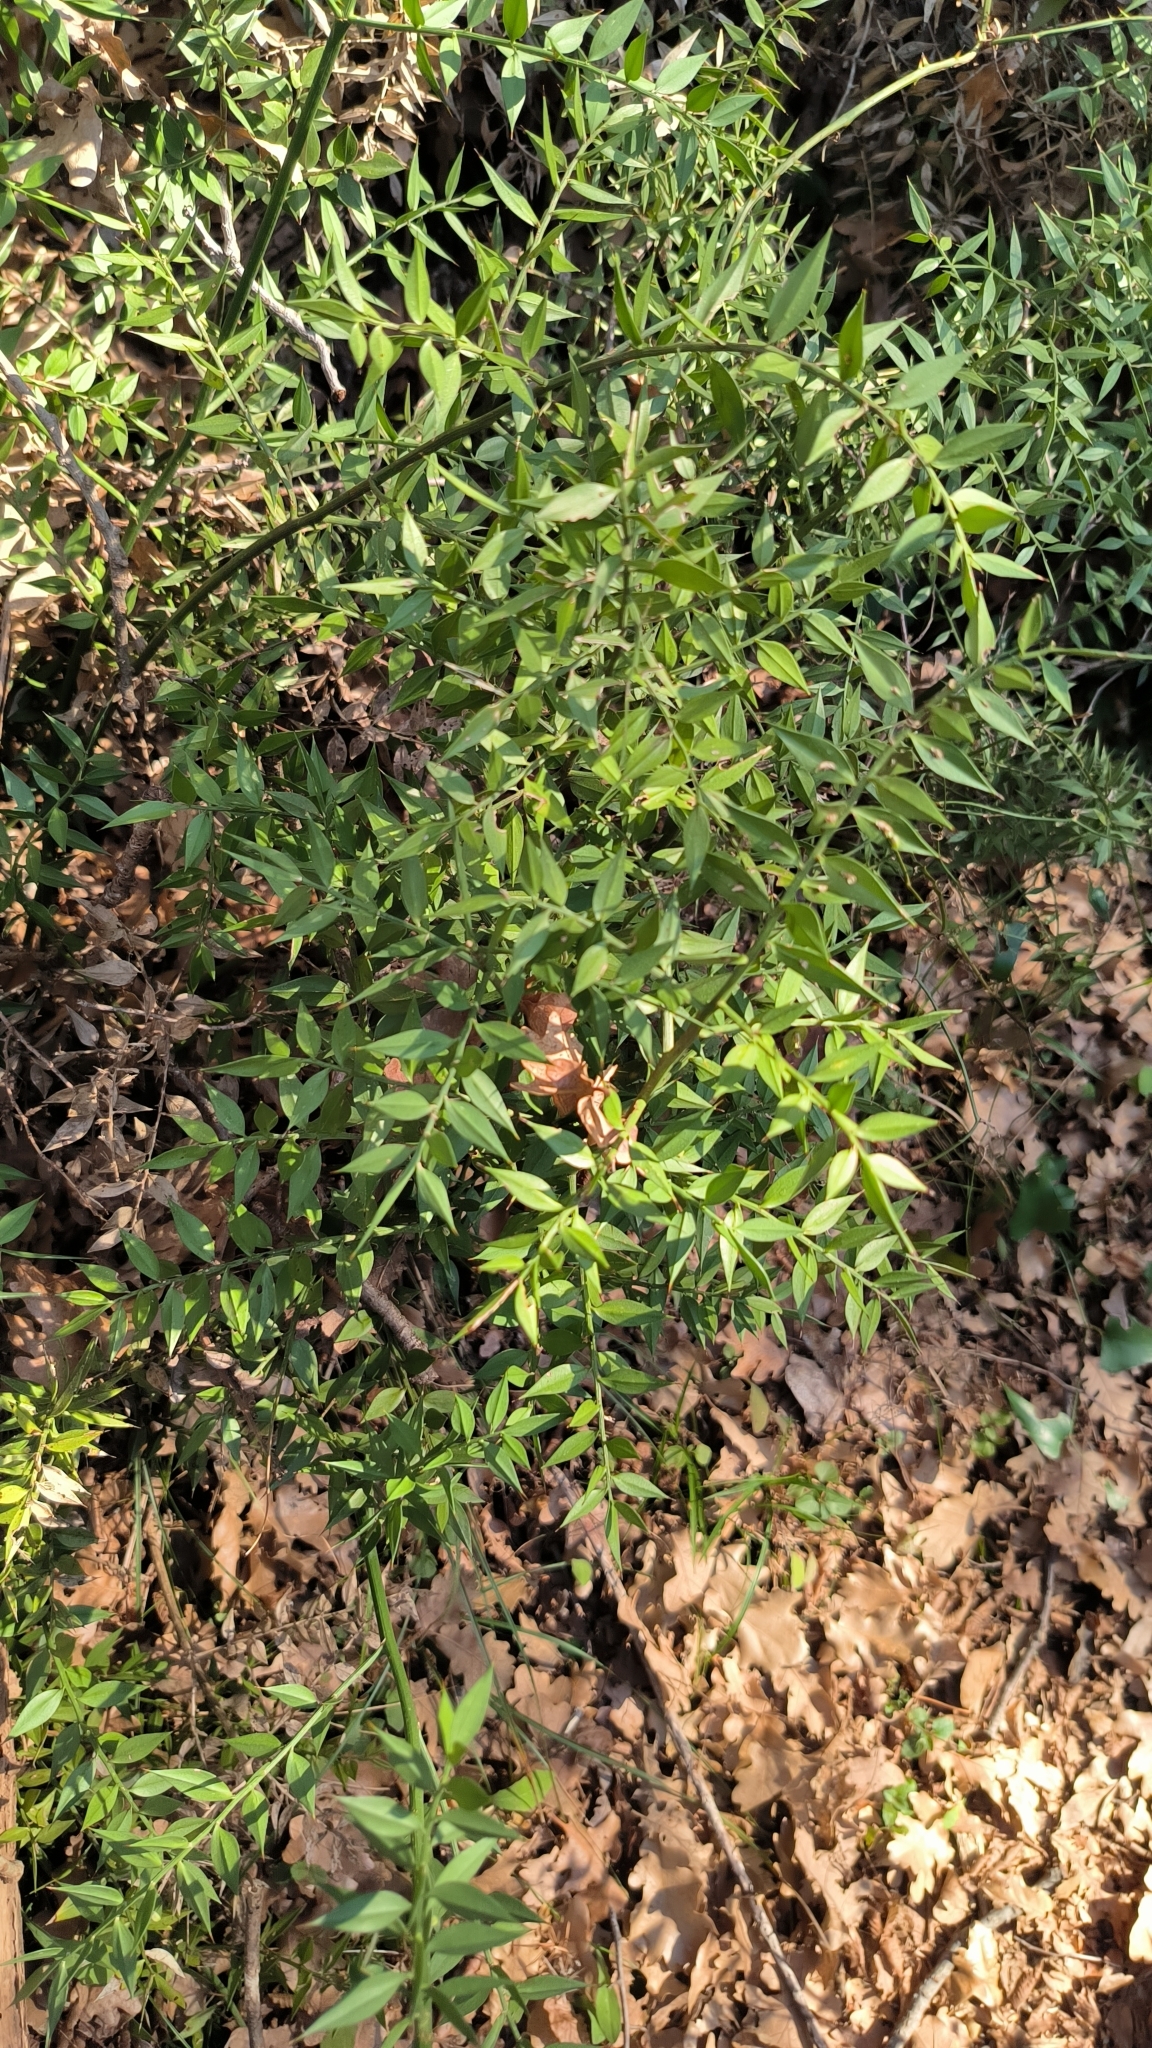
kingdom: Plantae
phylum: Tracheophyta
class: Liliopsida
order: Asparagales
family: Asparagaceae
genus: Ruscus
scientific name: Ruscus aculeatus
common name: Butcher's-broom
